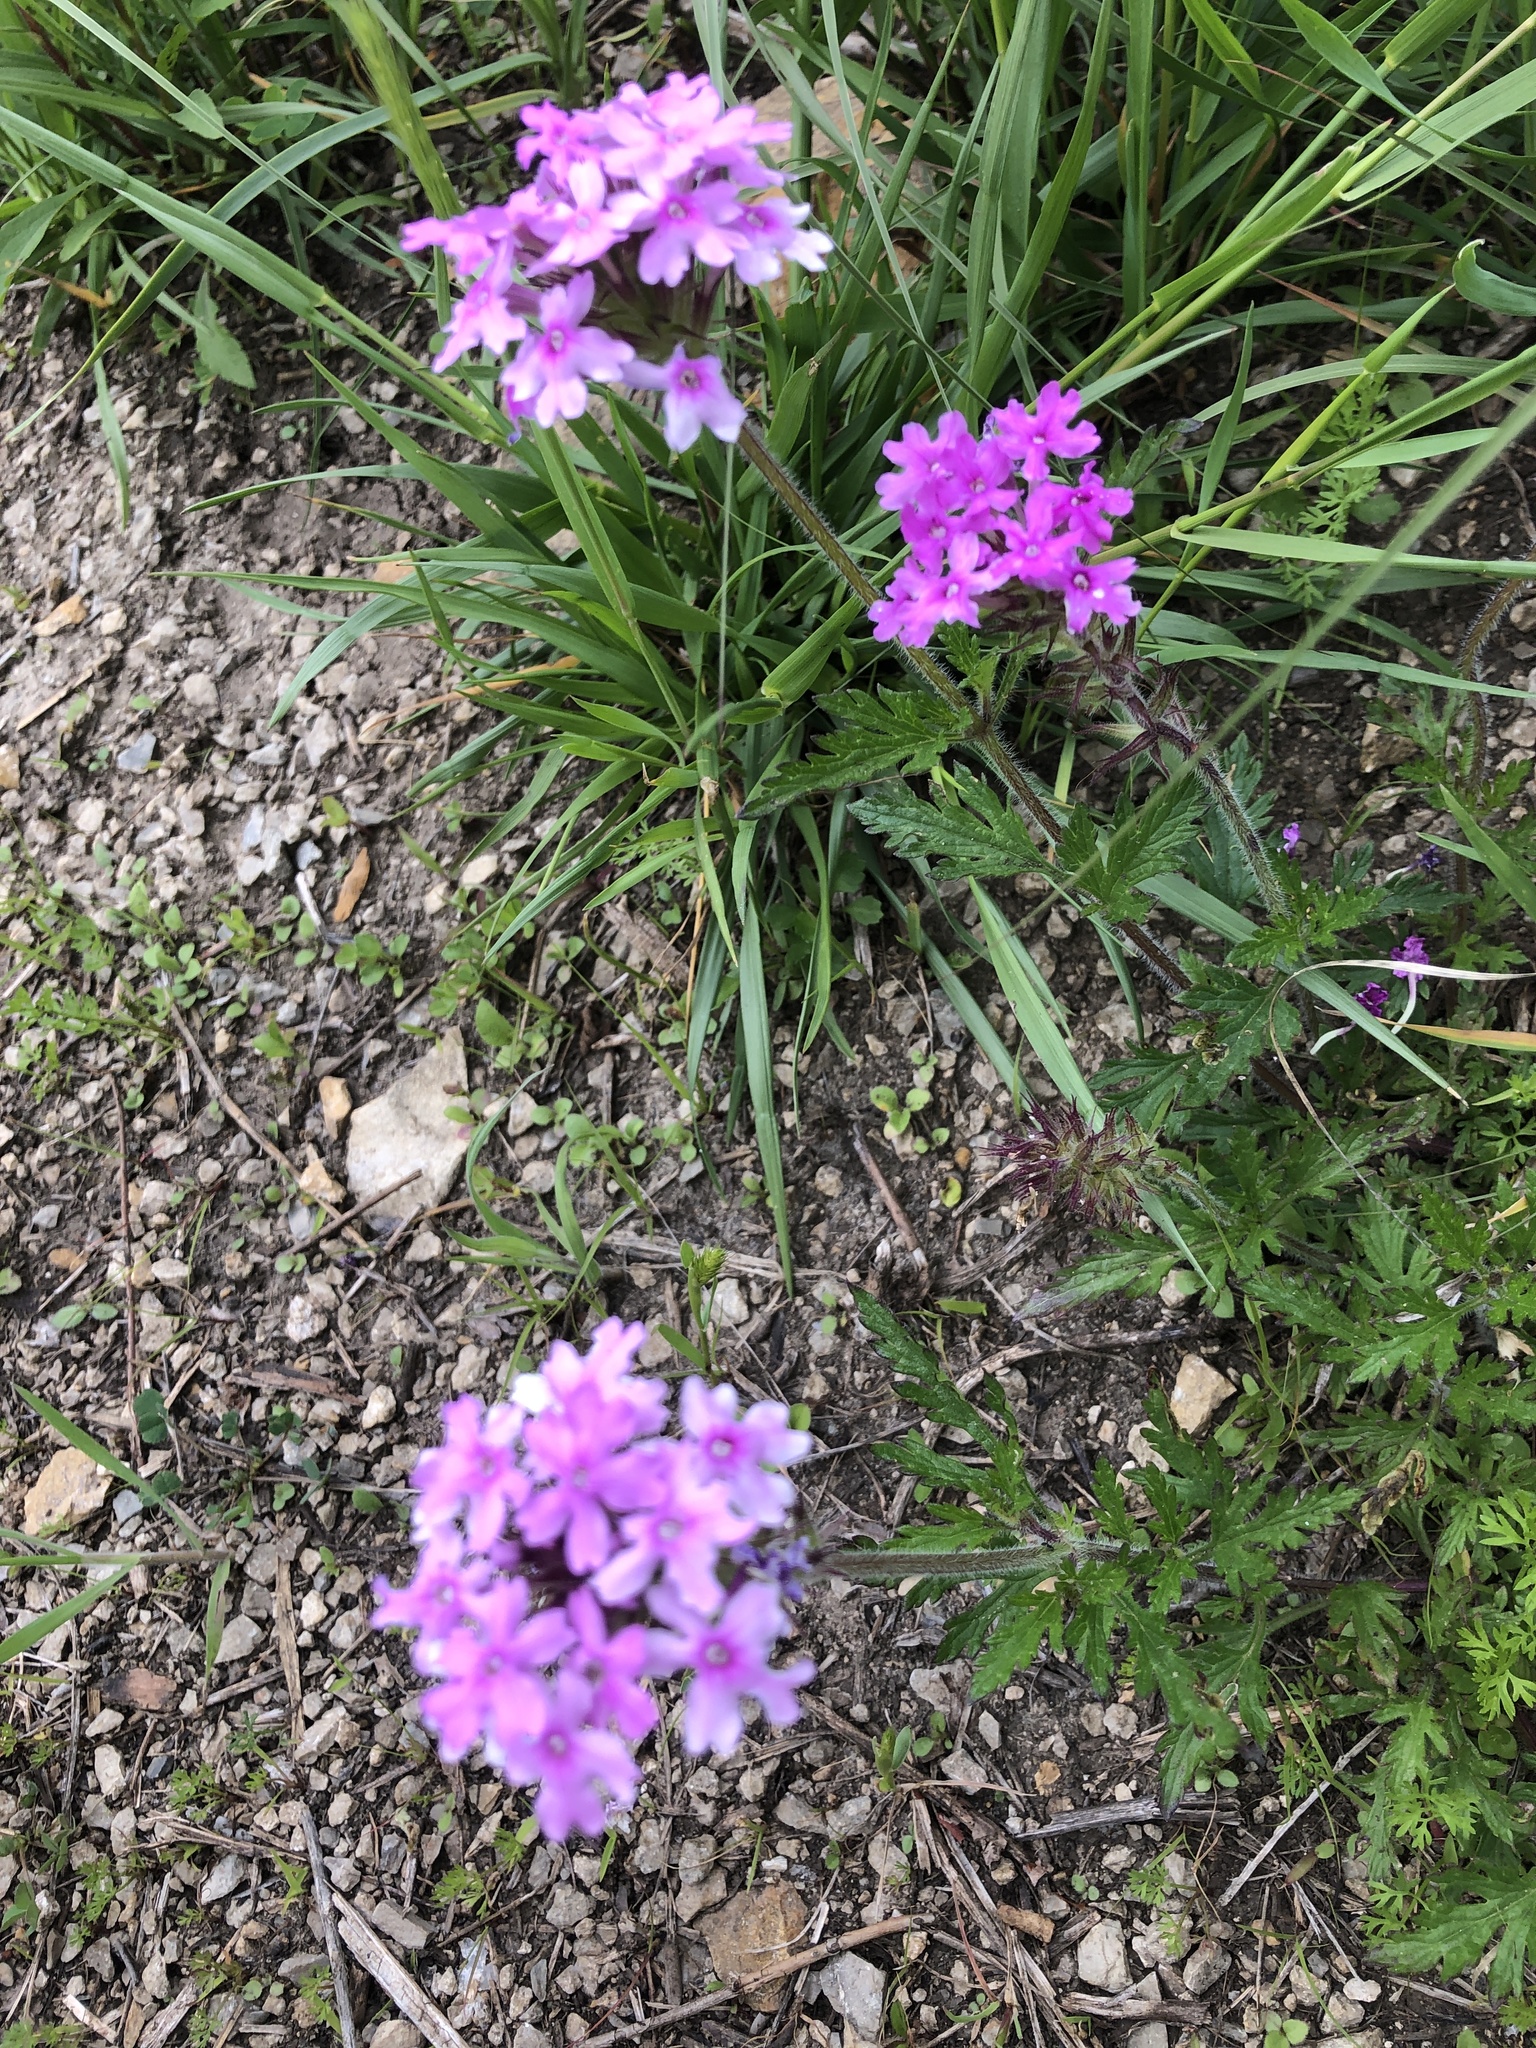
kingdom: Plantae
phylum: Tracheophyta
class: Magnoliopsida
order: Lamiales
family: Verbenaceae
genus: Verbena
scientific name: Verbena canadensis
